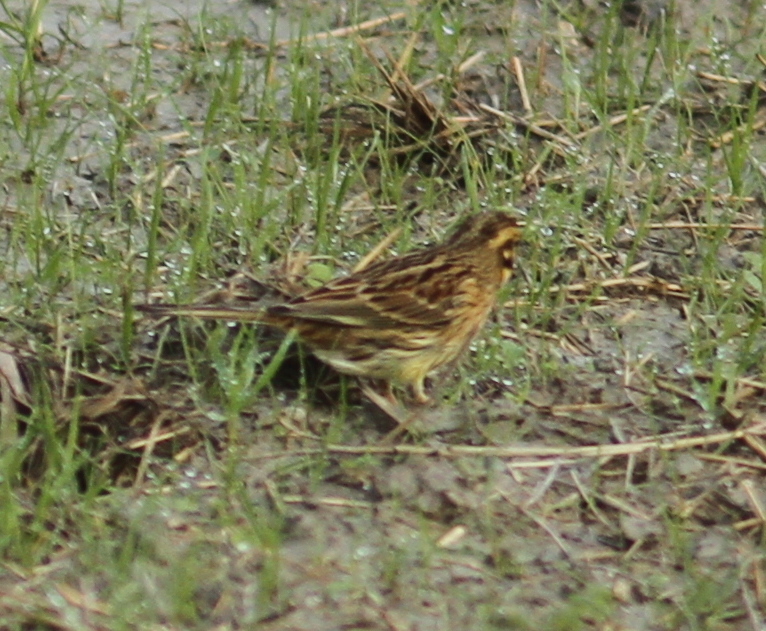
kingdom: Animalia
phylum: Chordata
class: Aves
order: Passeriformes
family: Emberizidae
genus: Emberiza
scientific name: Emberiza cirlus
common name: Cirl bunting
